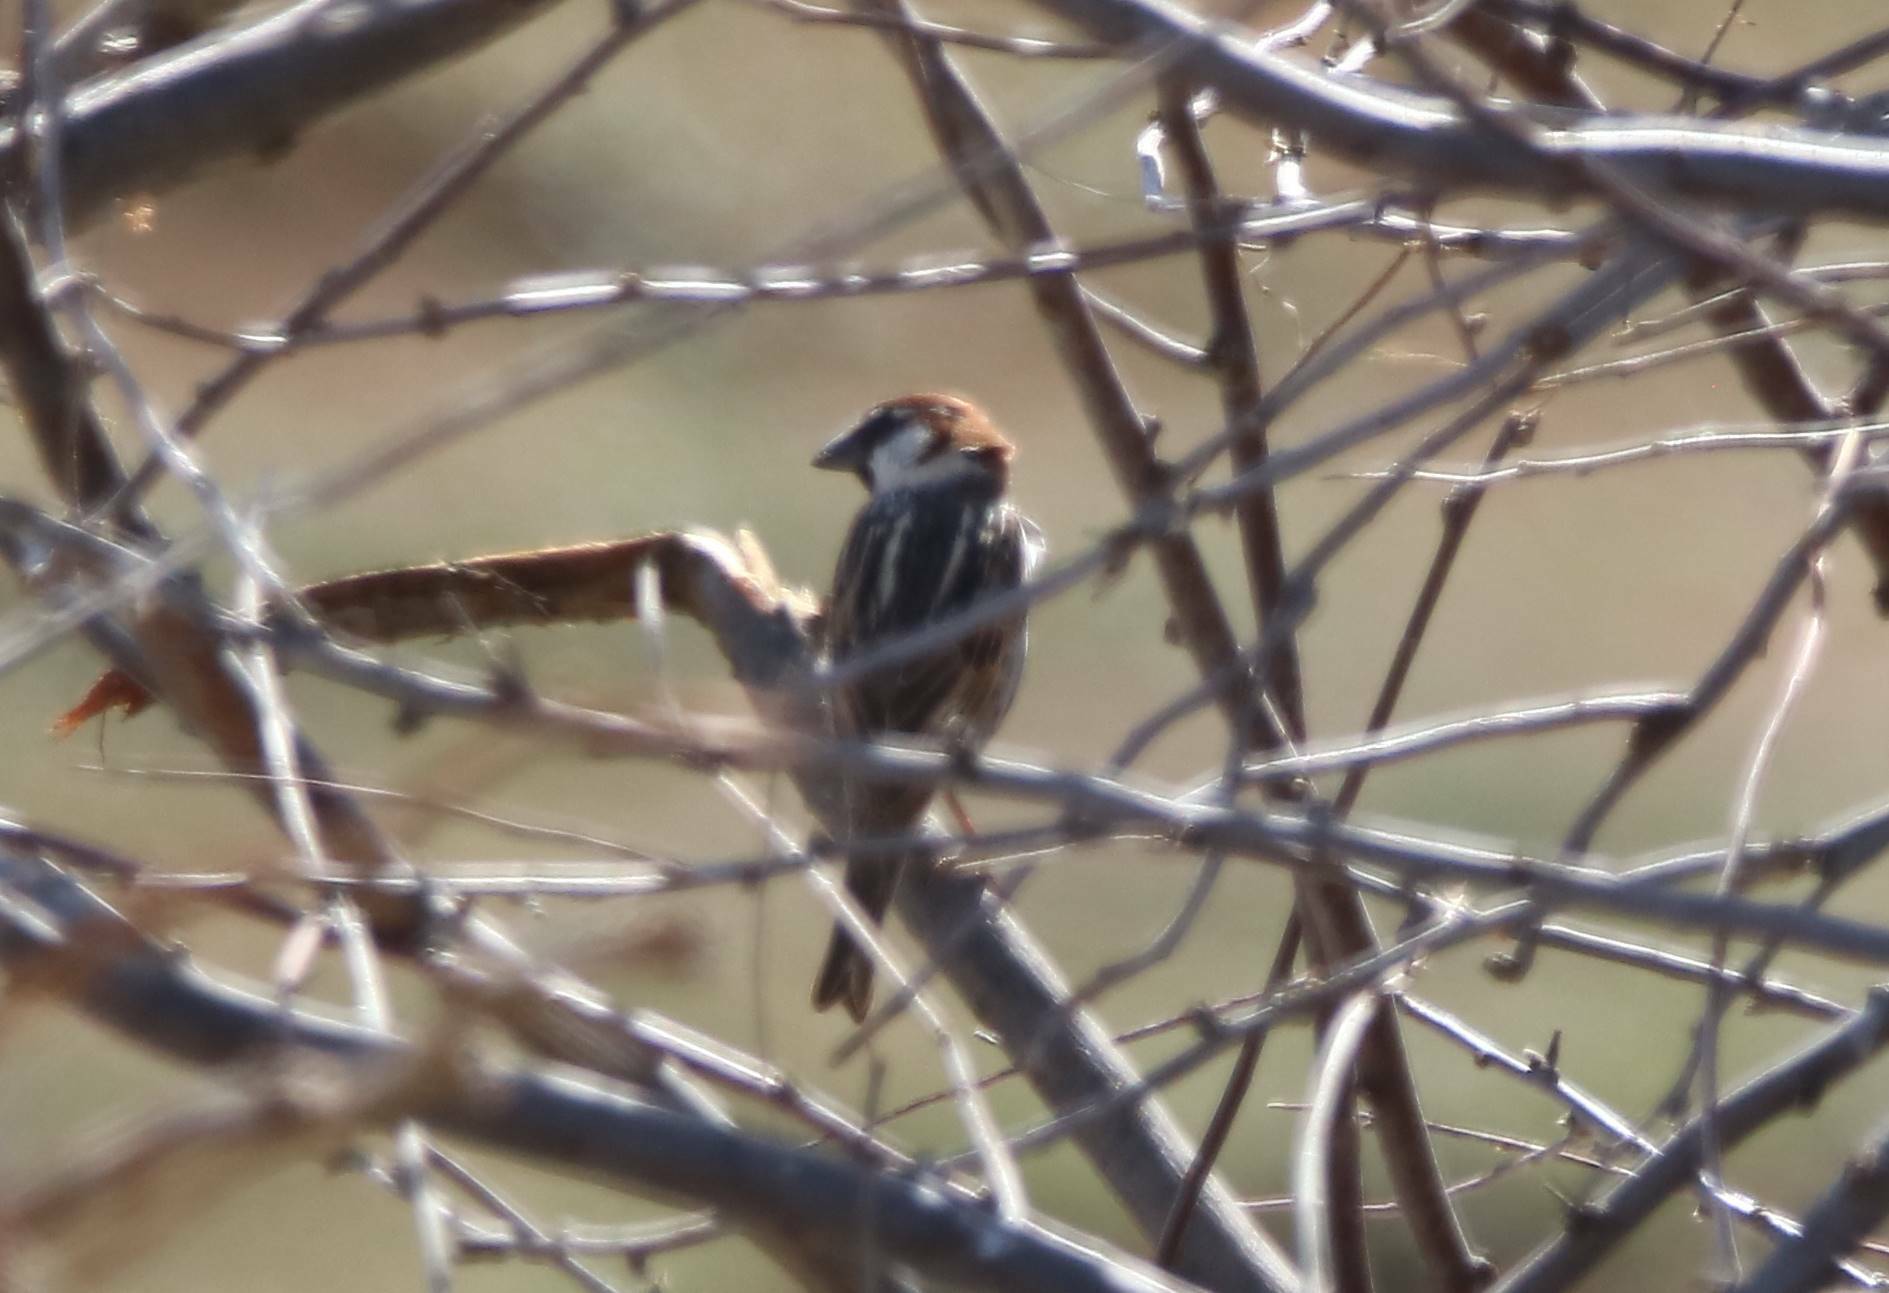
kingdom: Animalia
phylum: Chordata
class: Aves
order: Passeriformes
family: Passeridae
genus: Passer
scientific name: Passer hispaniolensis
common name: Spanish sparrow
